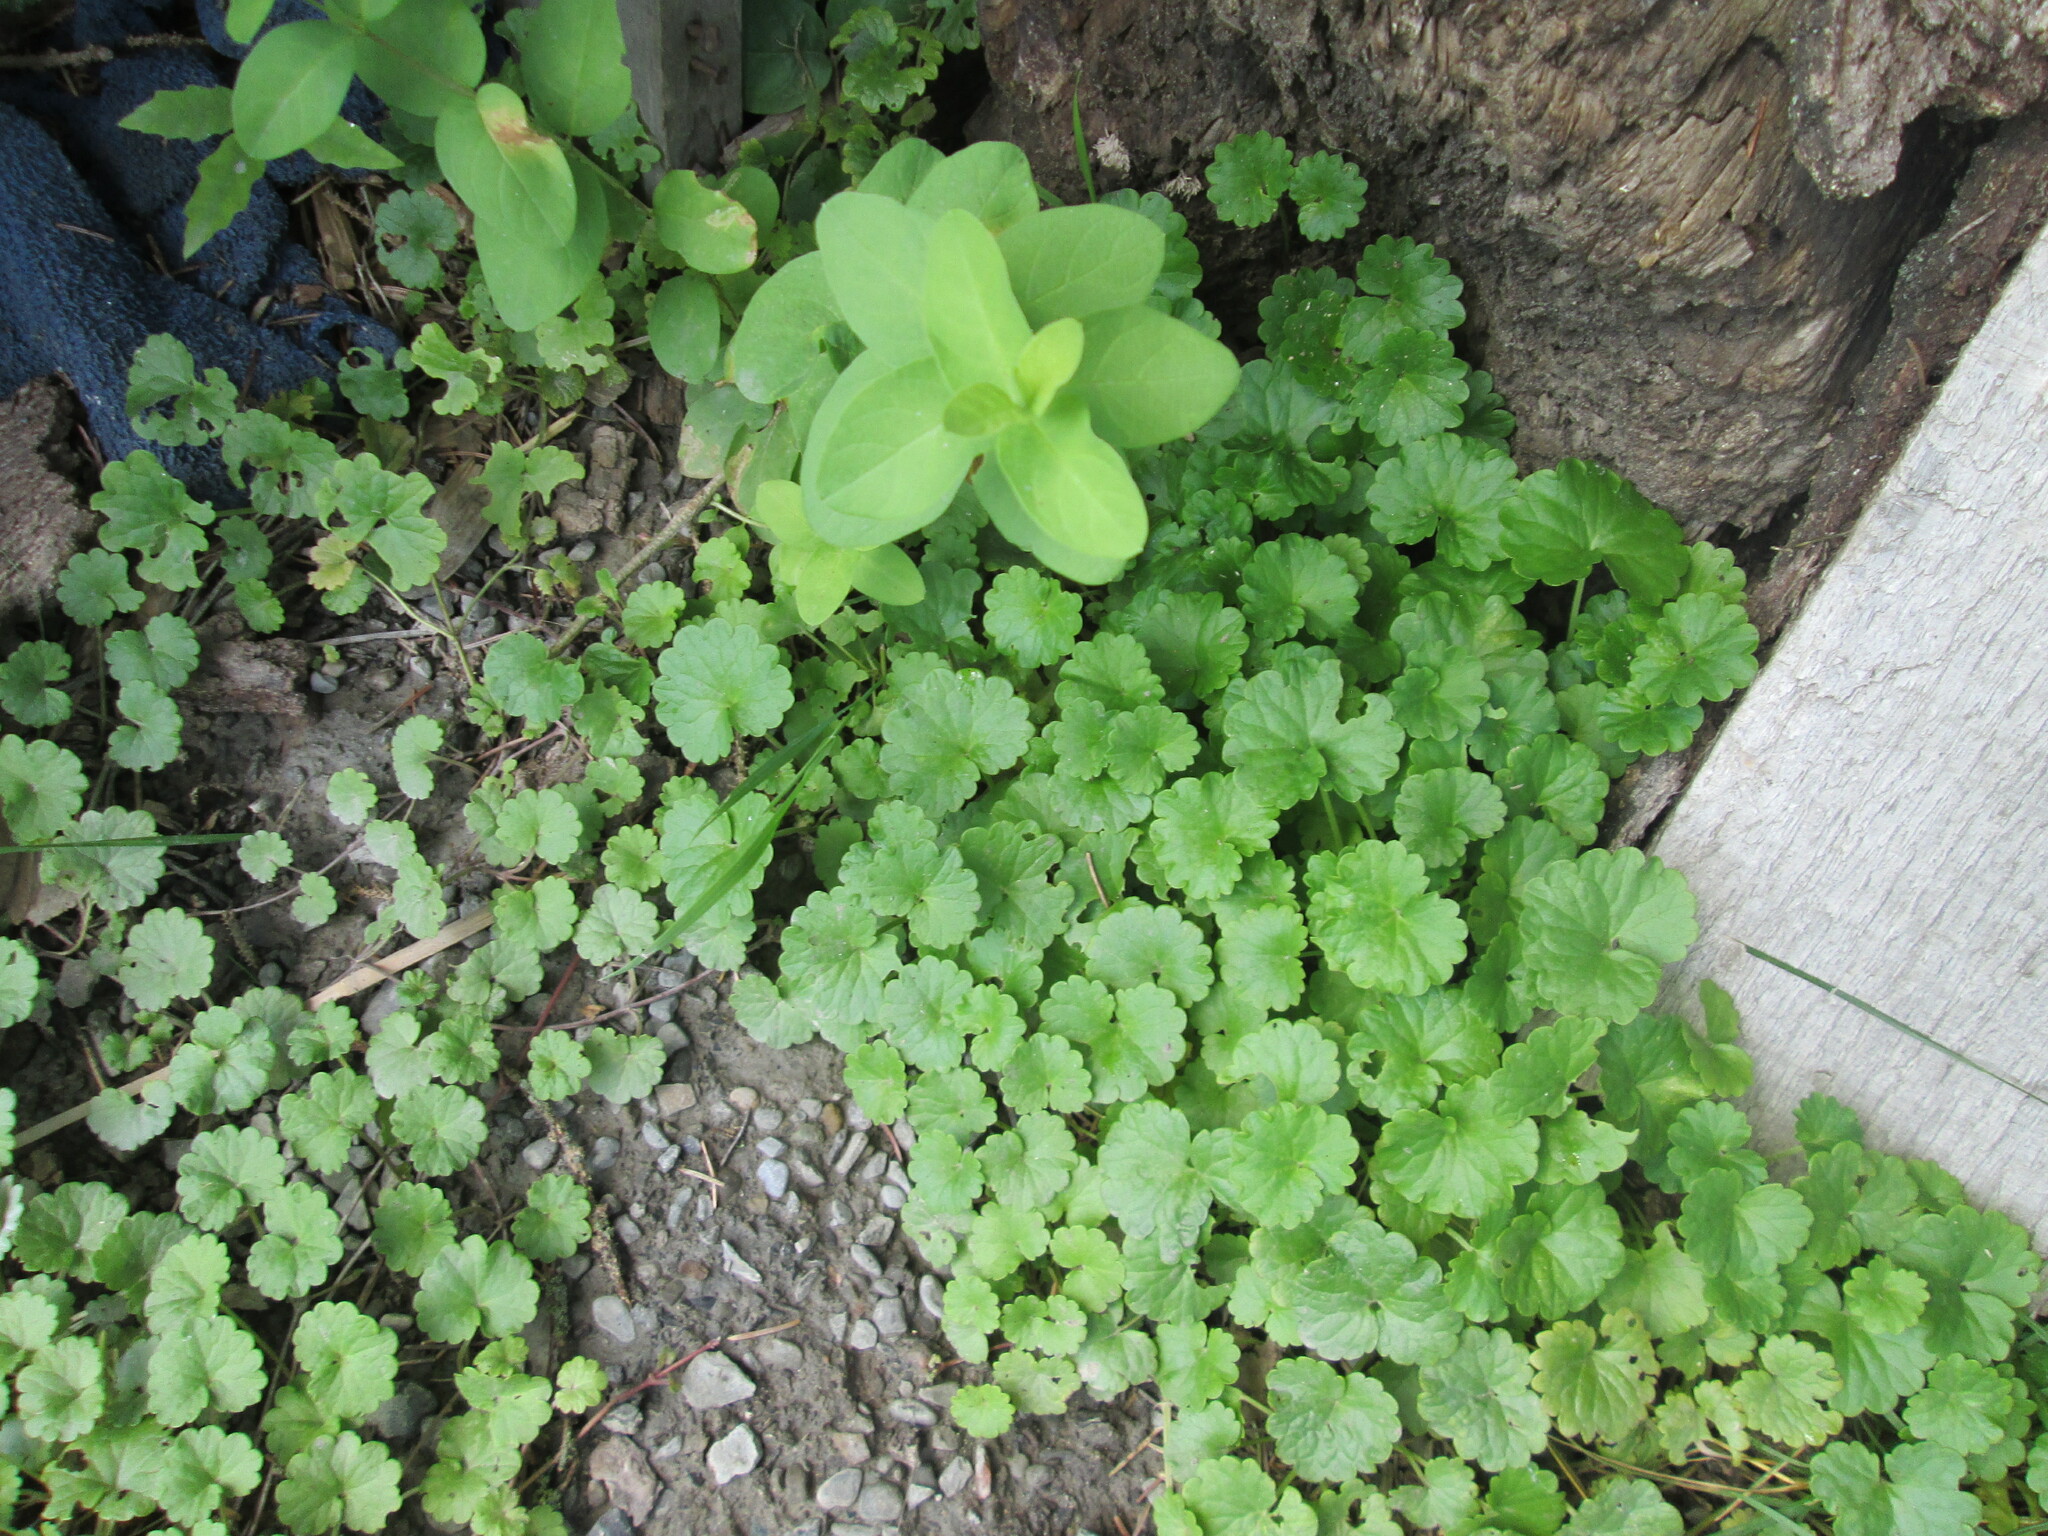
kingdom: Plantae
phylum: Tracheophyta
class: Magnoliopsida
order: Lamiales
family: Lamiaceae
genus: Glechoma
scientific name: Glechoma hederacea
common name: Ground ivy
